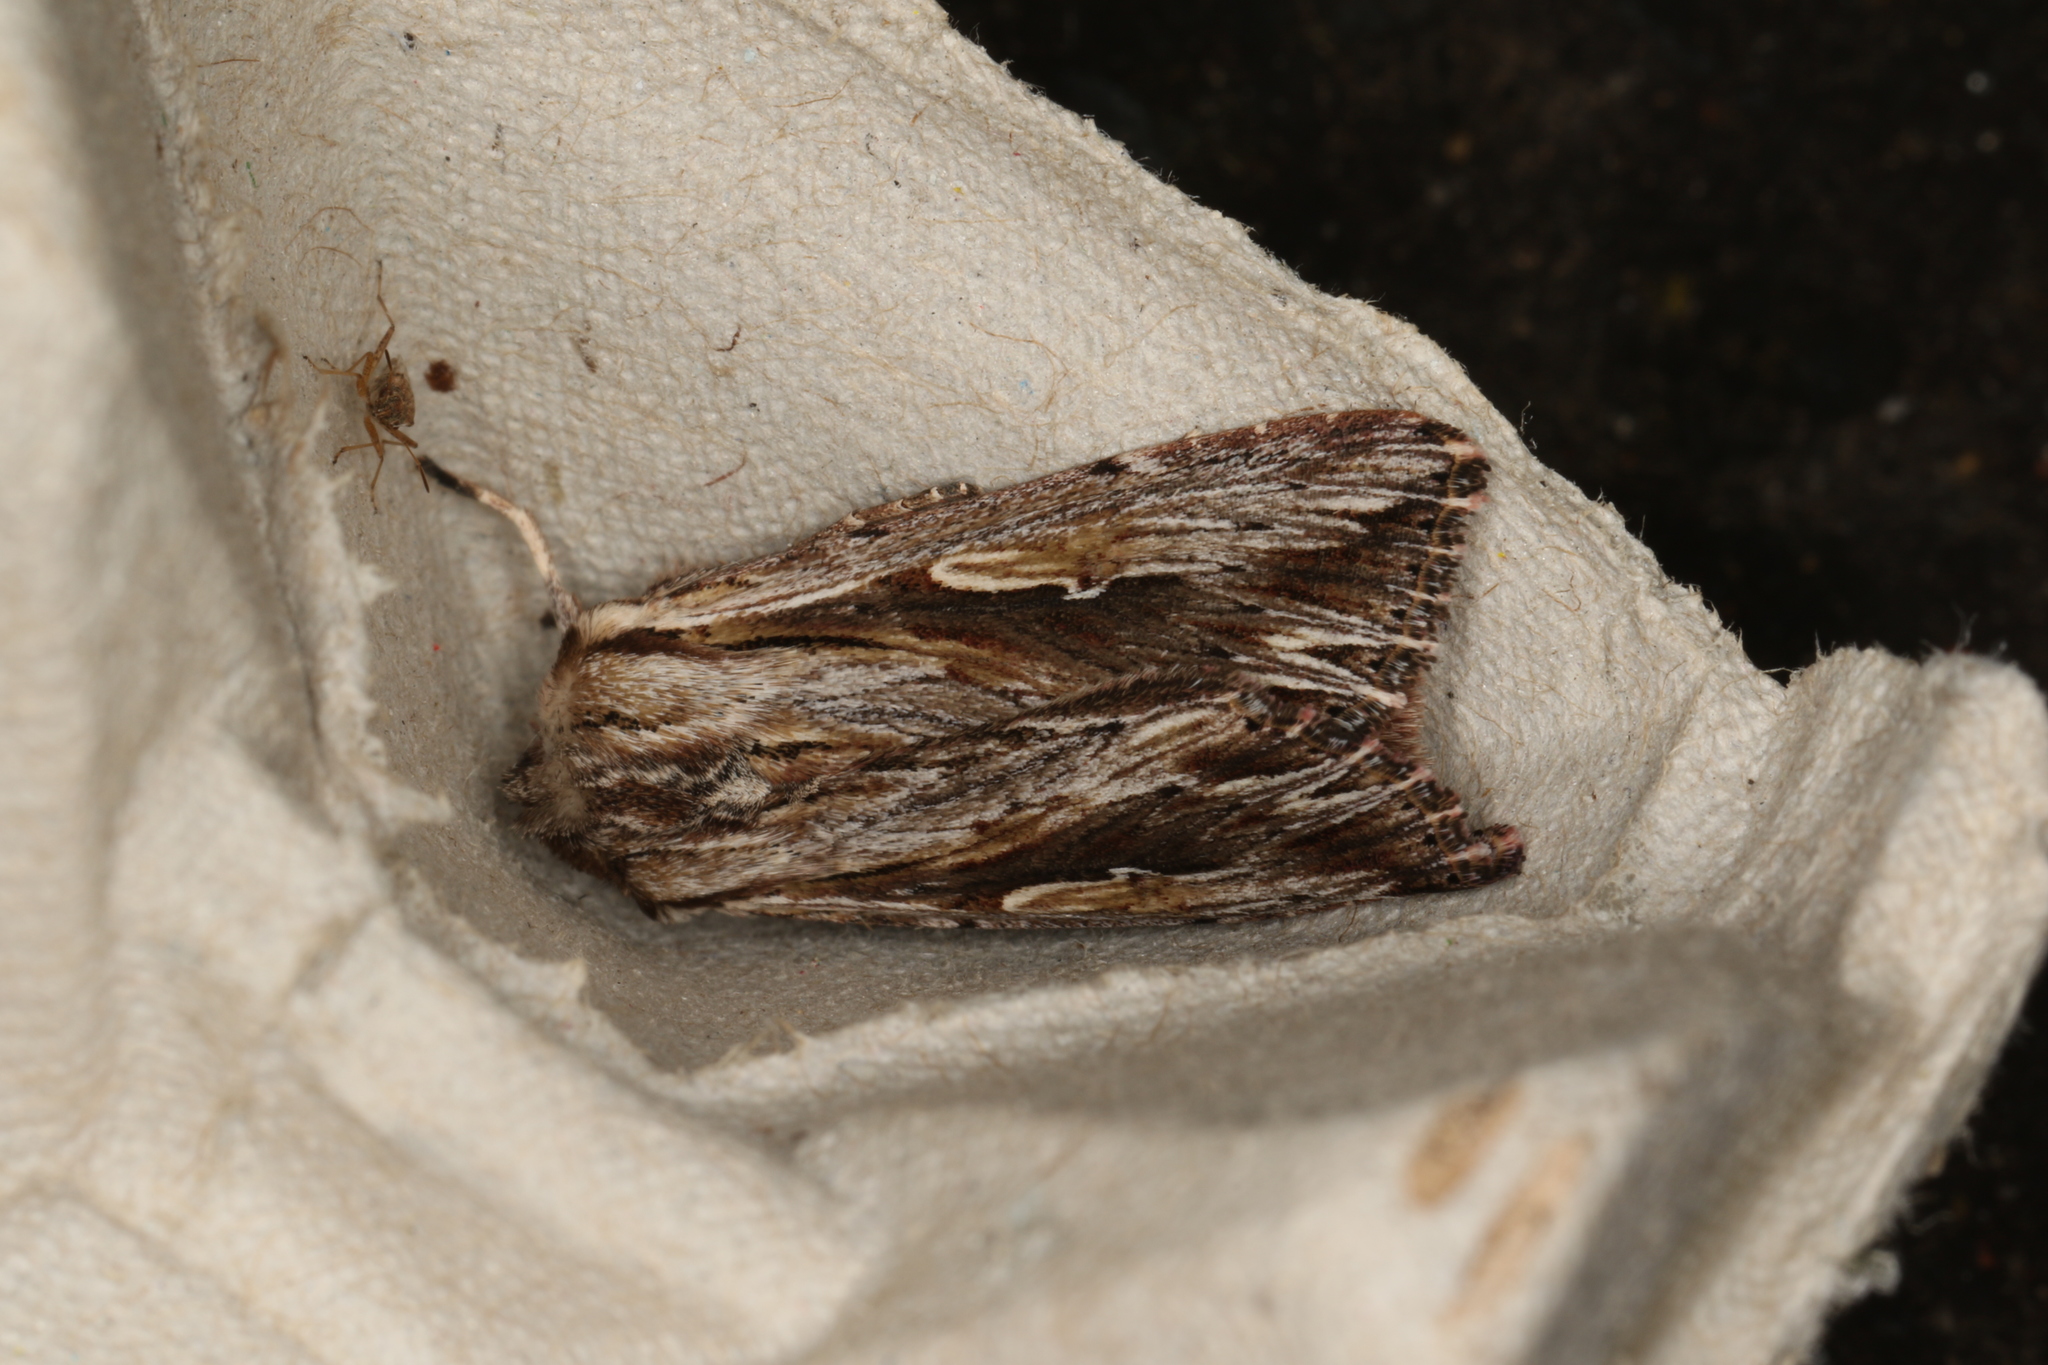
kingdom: Animalia
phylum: Arthropoda
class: Insecta
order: Lepidoptera
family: Noctuidae
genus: Persectania
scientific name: Persectania ewingii
